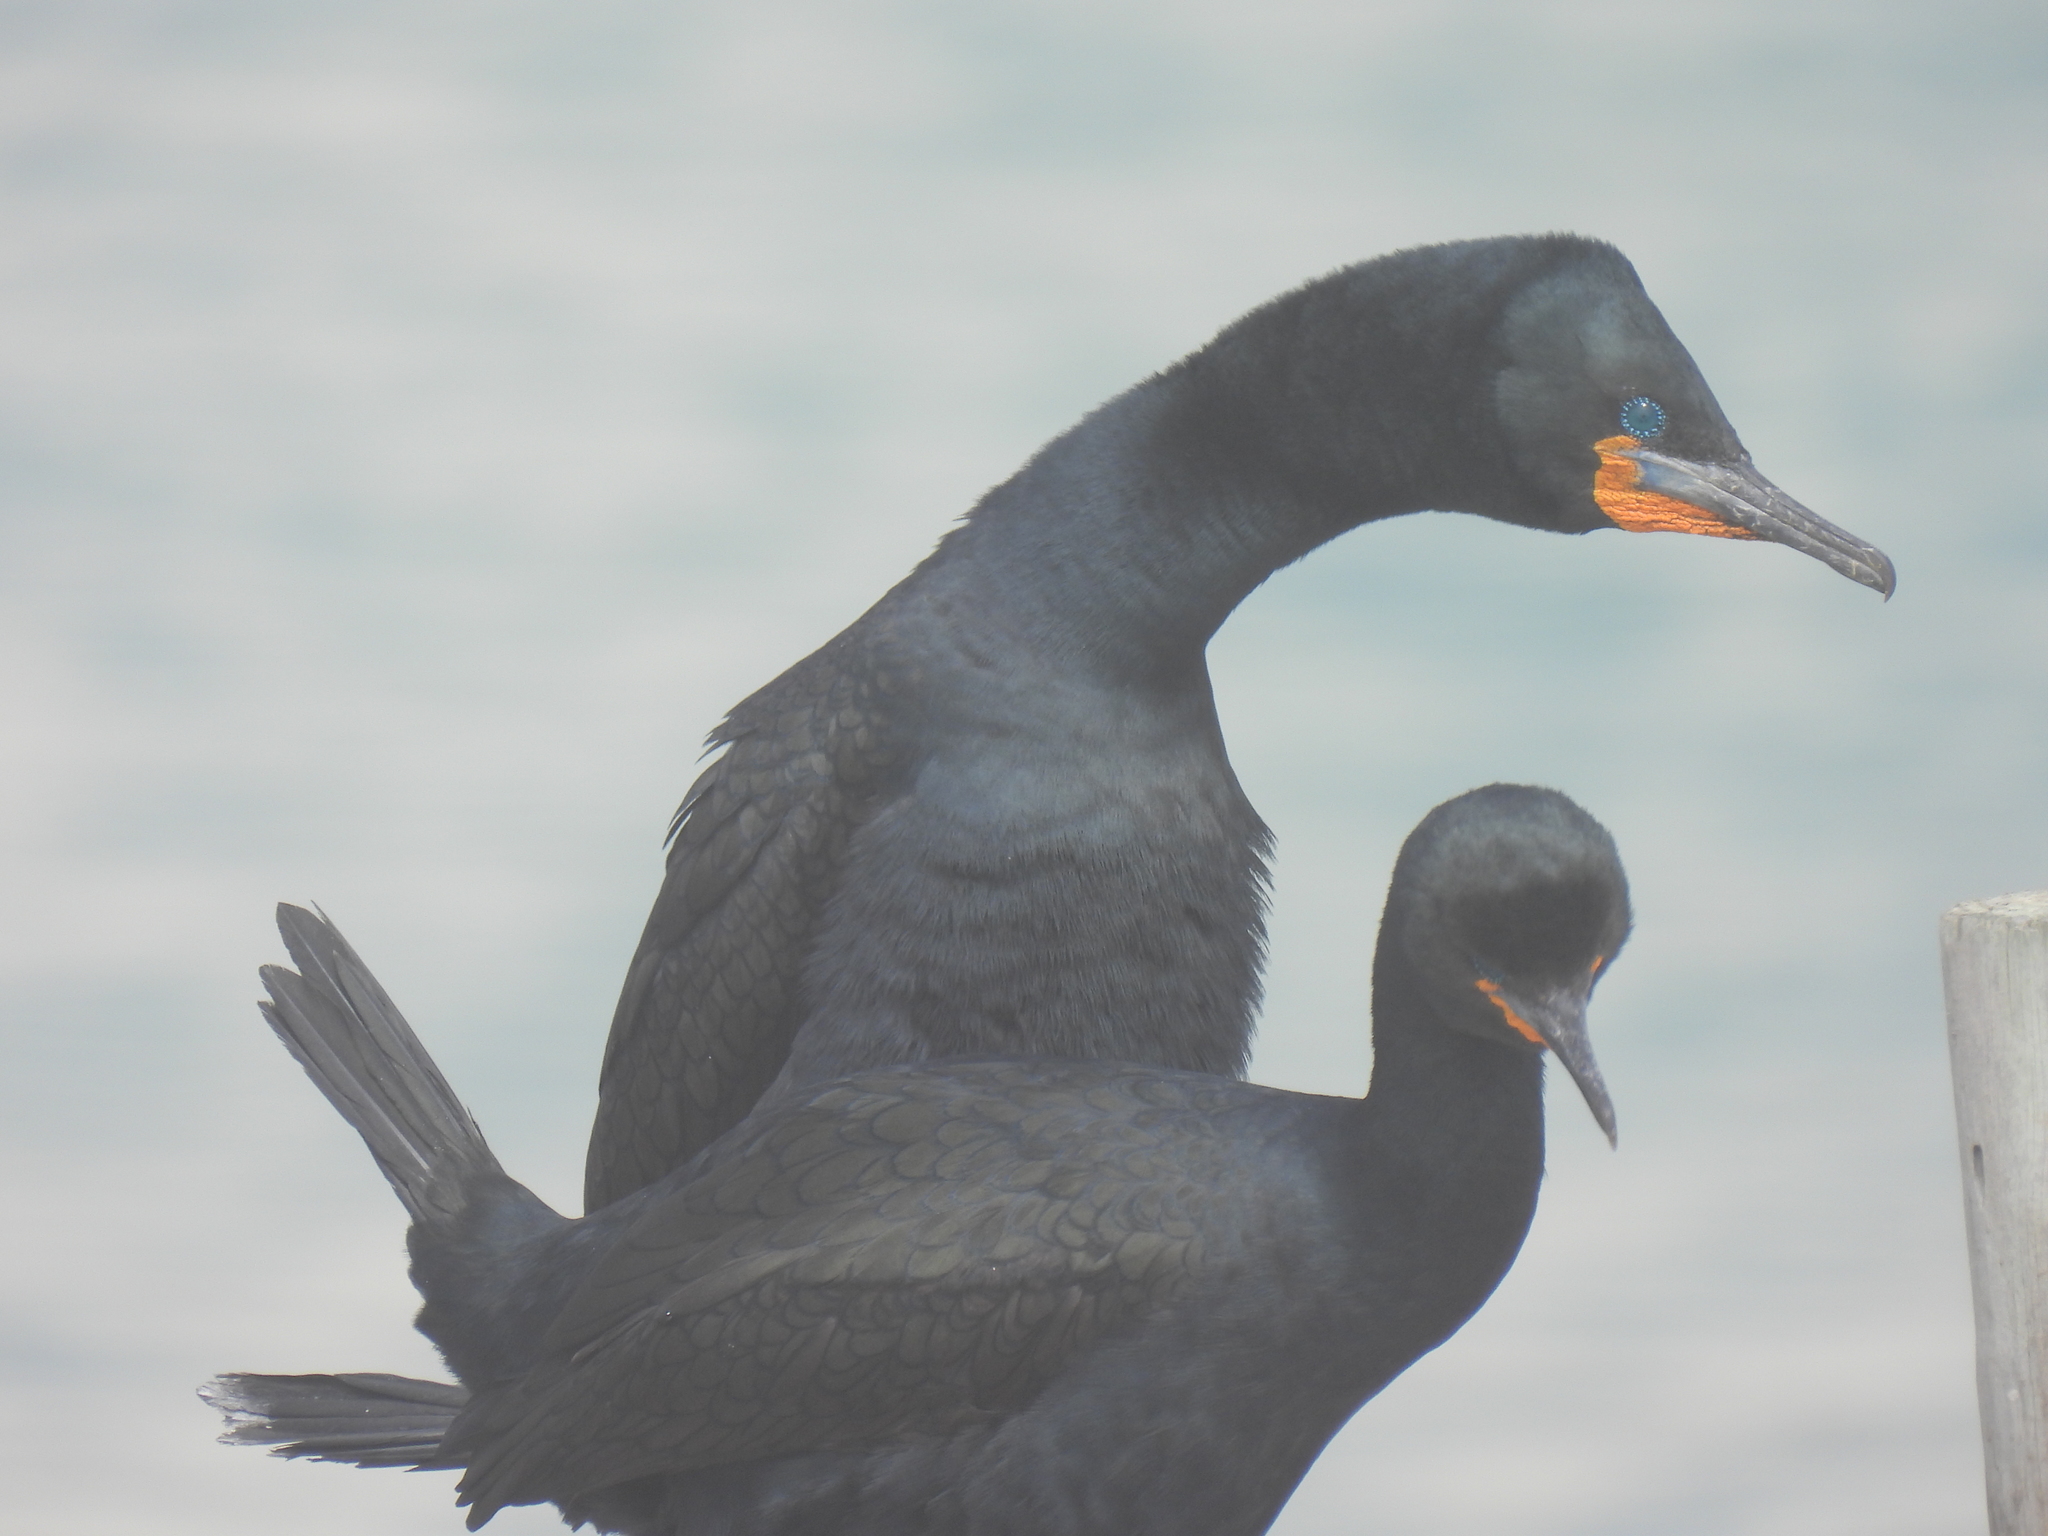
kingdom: Animalia
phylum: Chordata
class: Aves
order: Suliformes
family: Phalacrocoracidae
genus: Phalacrocorax
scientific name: Phalacrocorax capensis
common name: Cape cormorant
